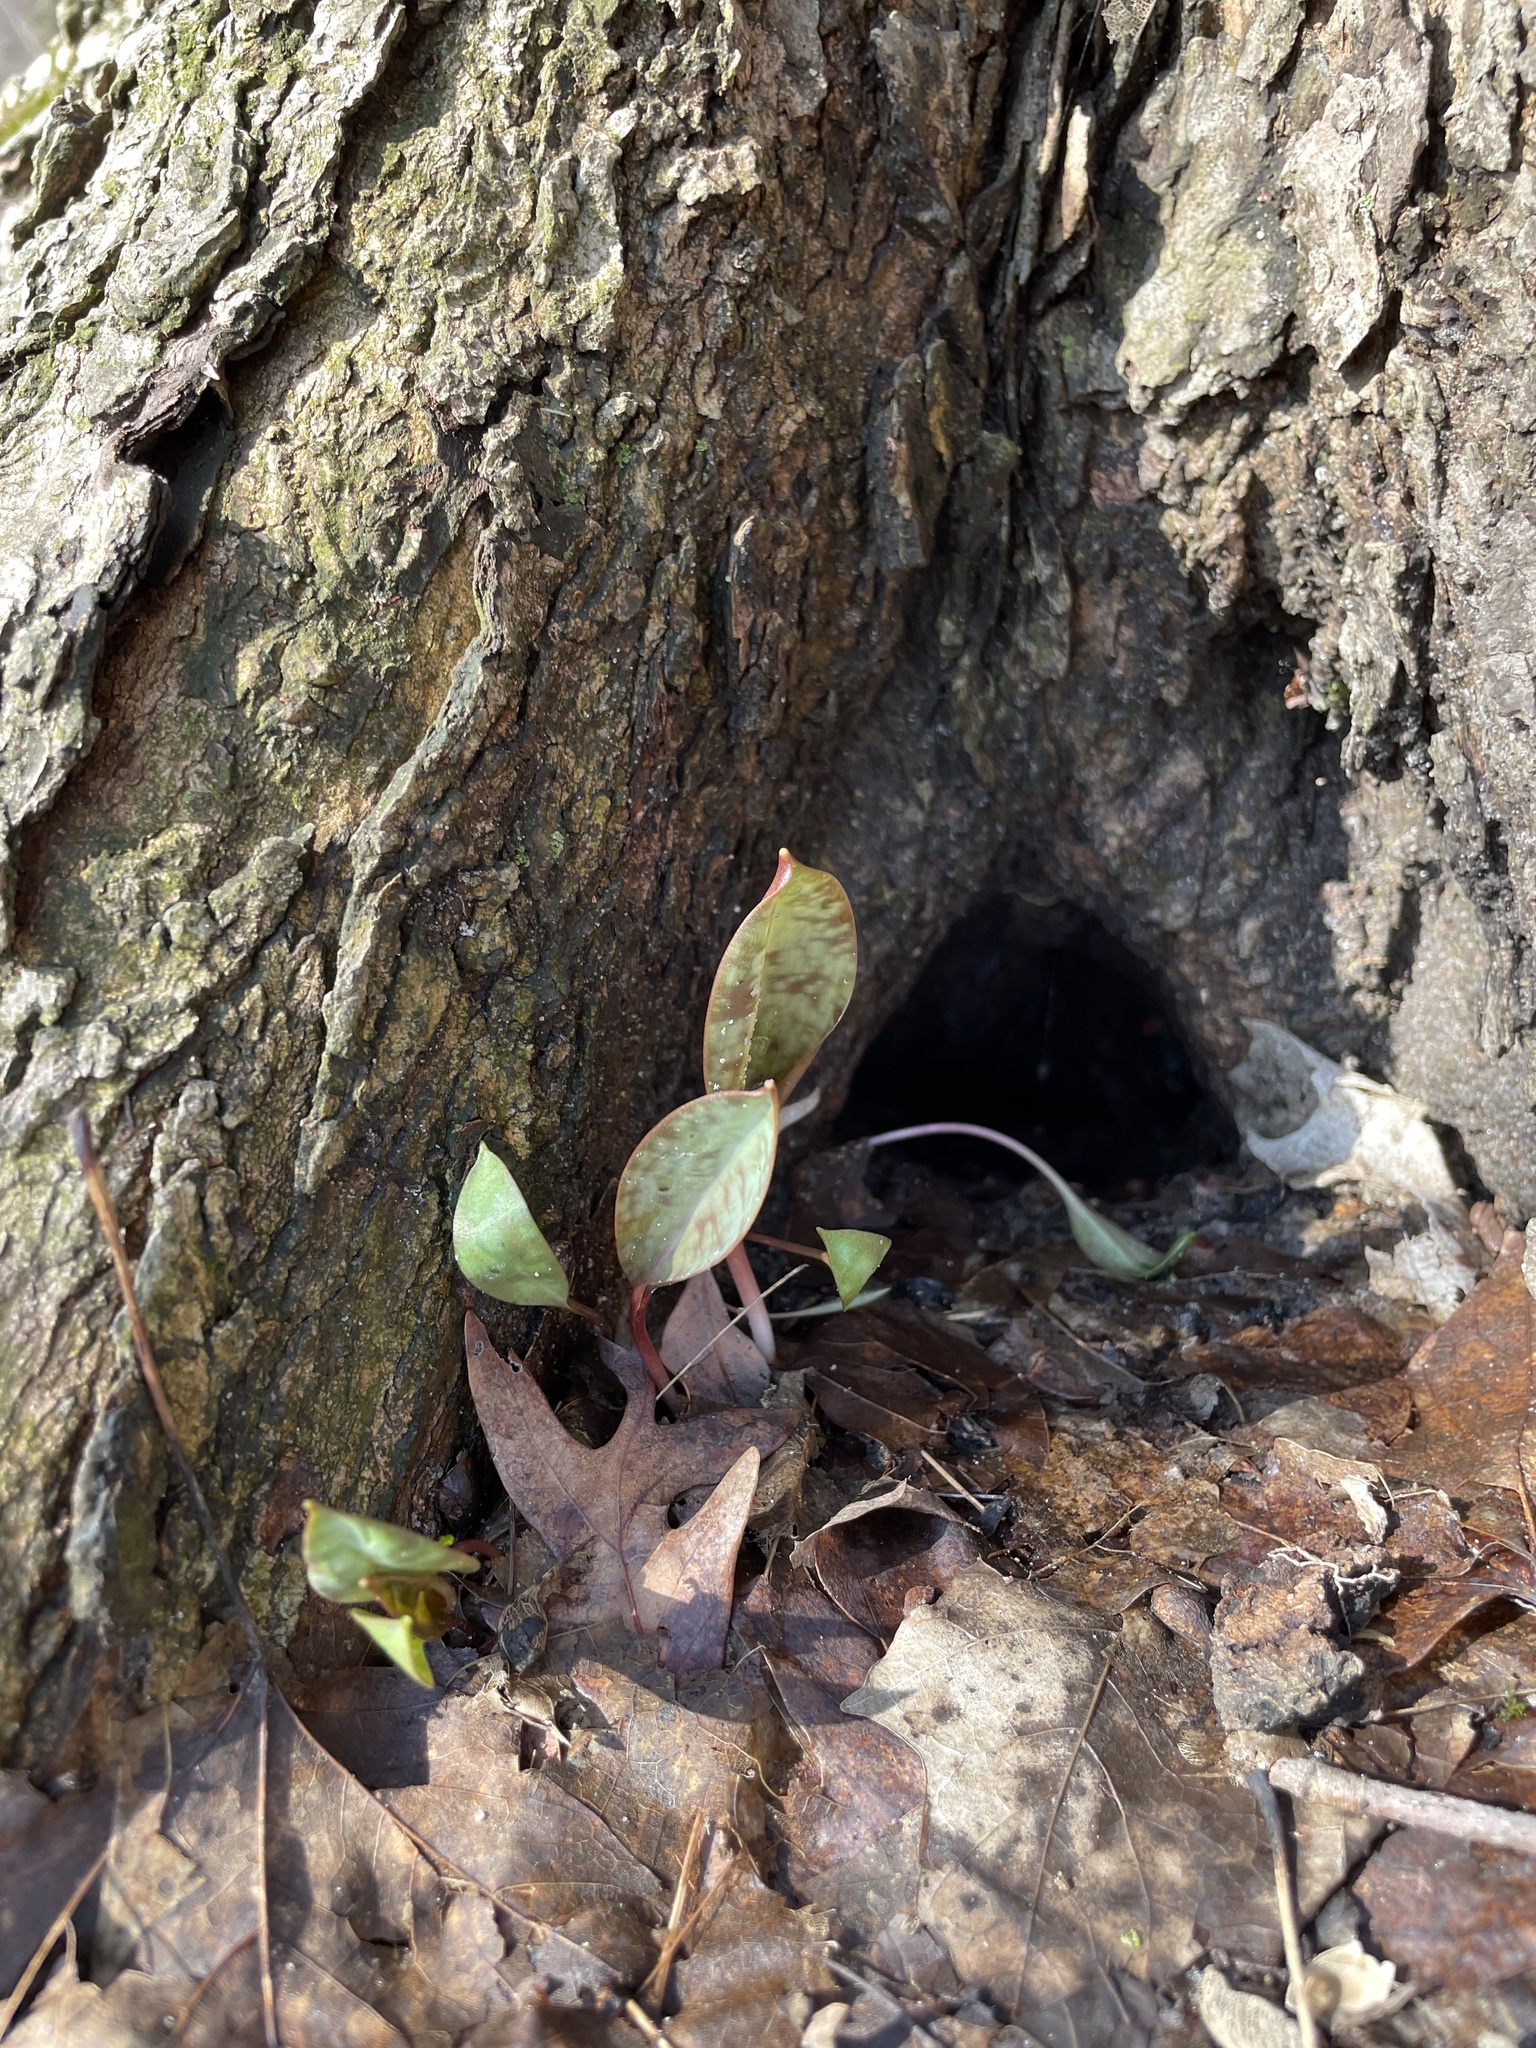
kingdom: Plantae
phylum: Tracheophyta
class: Liliopsida
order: Liliales
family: Liliaceae
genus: Erythronium
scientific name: Erythronium americanum
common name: Yellow adder's-tongue
